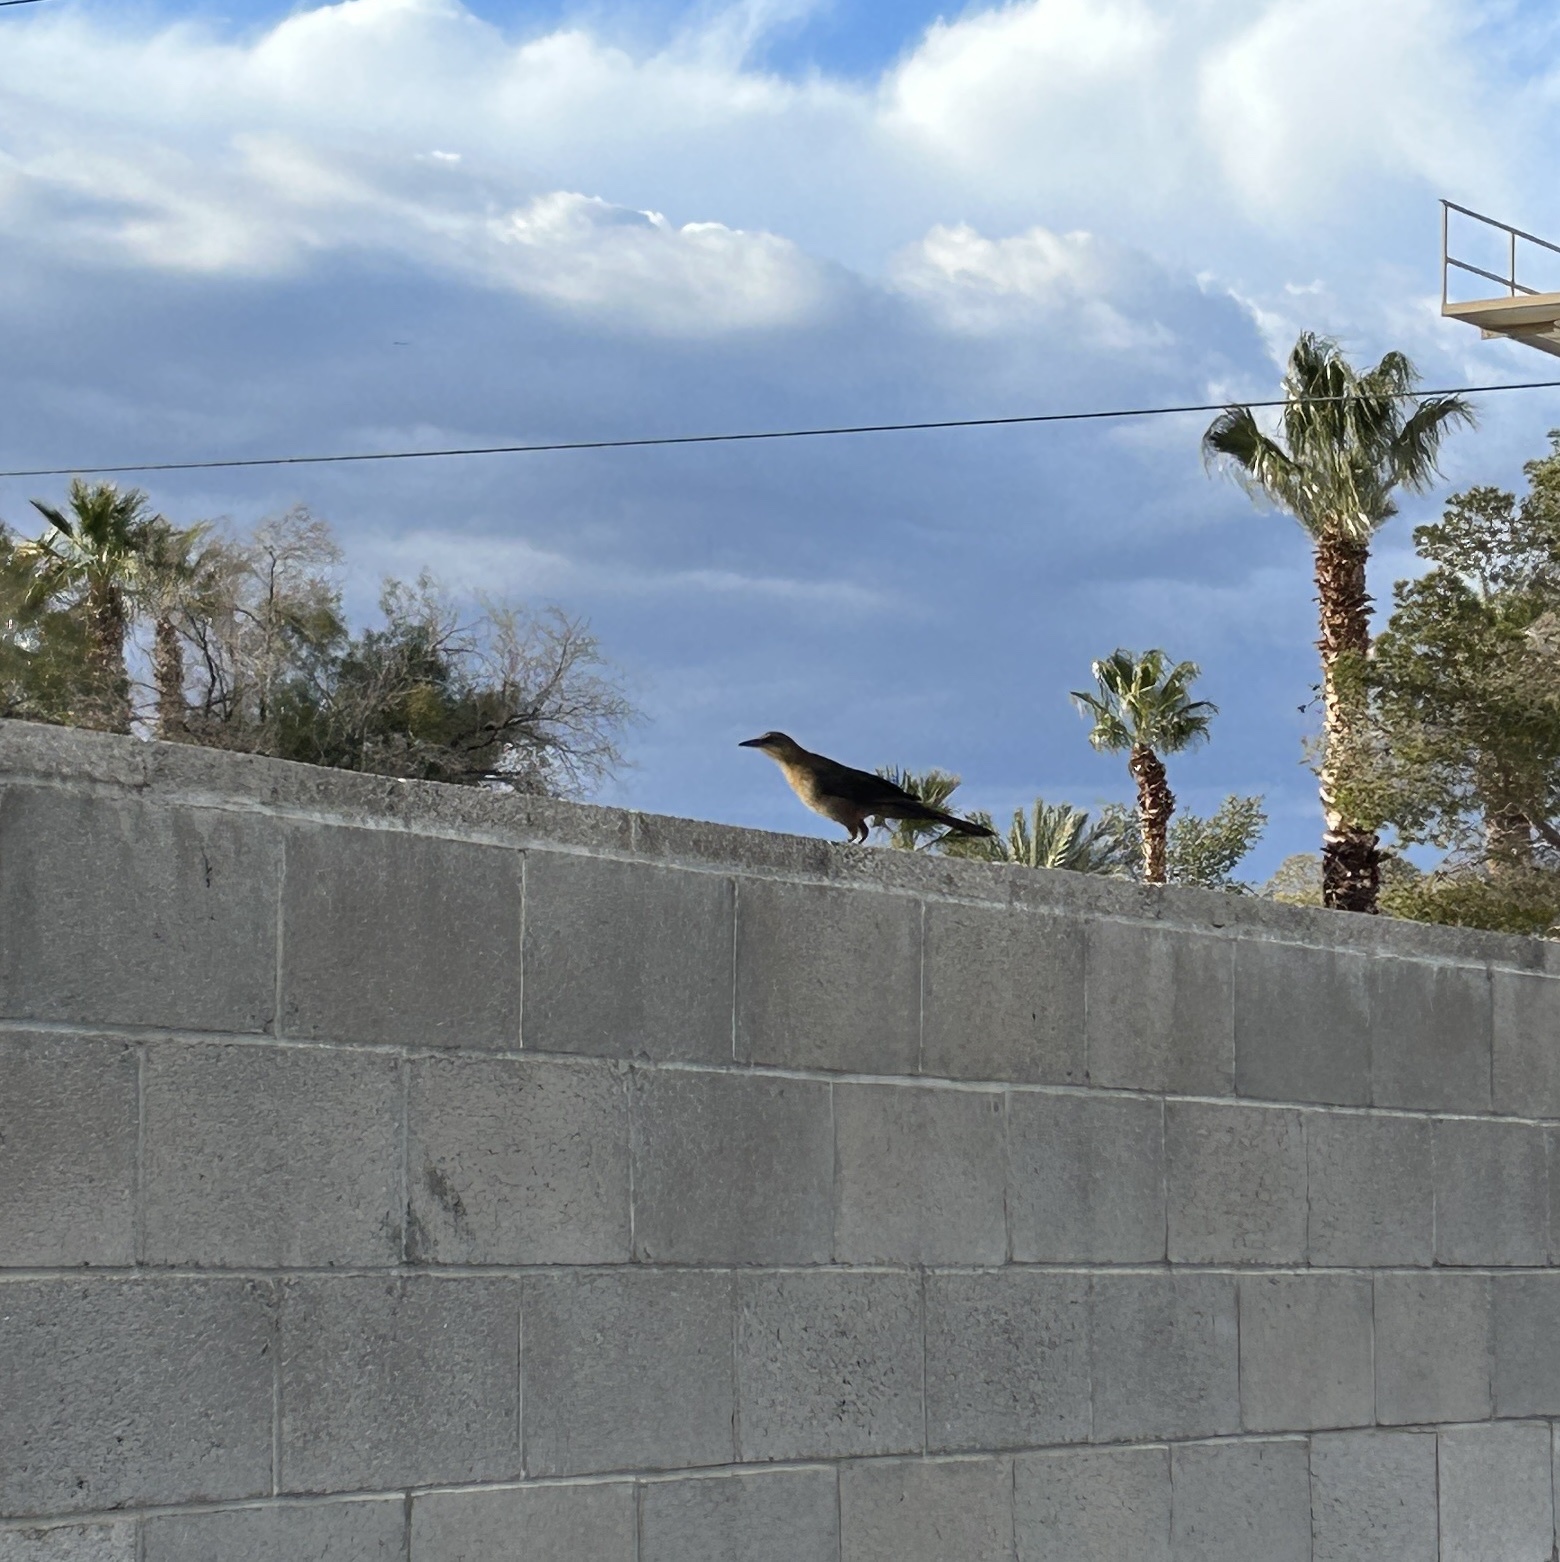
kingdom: Animalia
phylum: Chordata
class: Aves
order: Passeriformes
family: Icteridae
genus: Quiscalus
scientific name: Quiscalus mexicanus
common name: Great-tailed grackle
